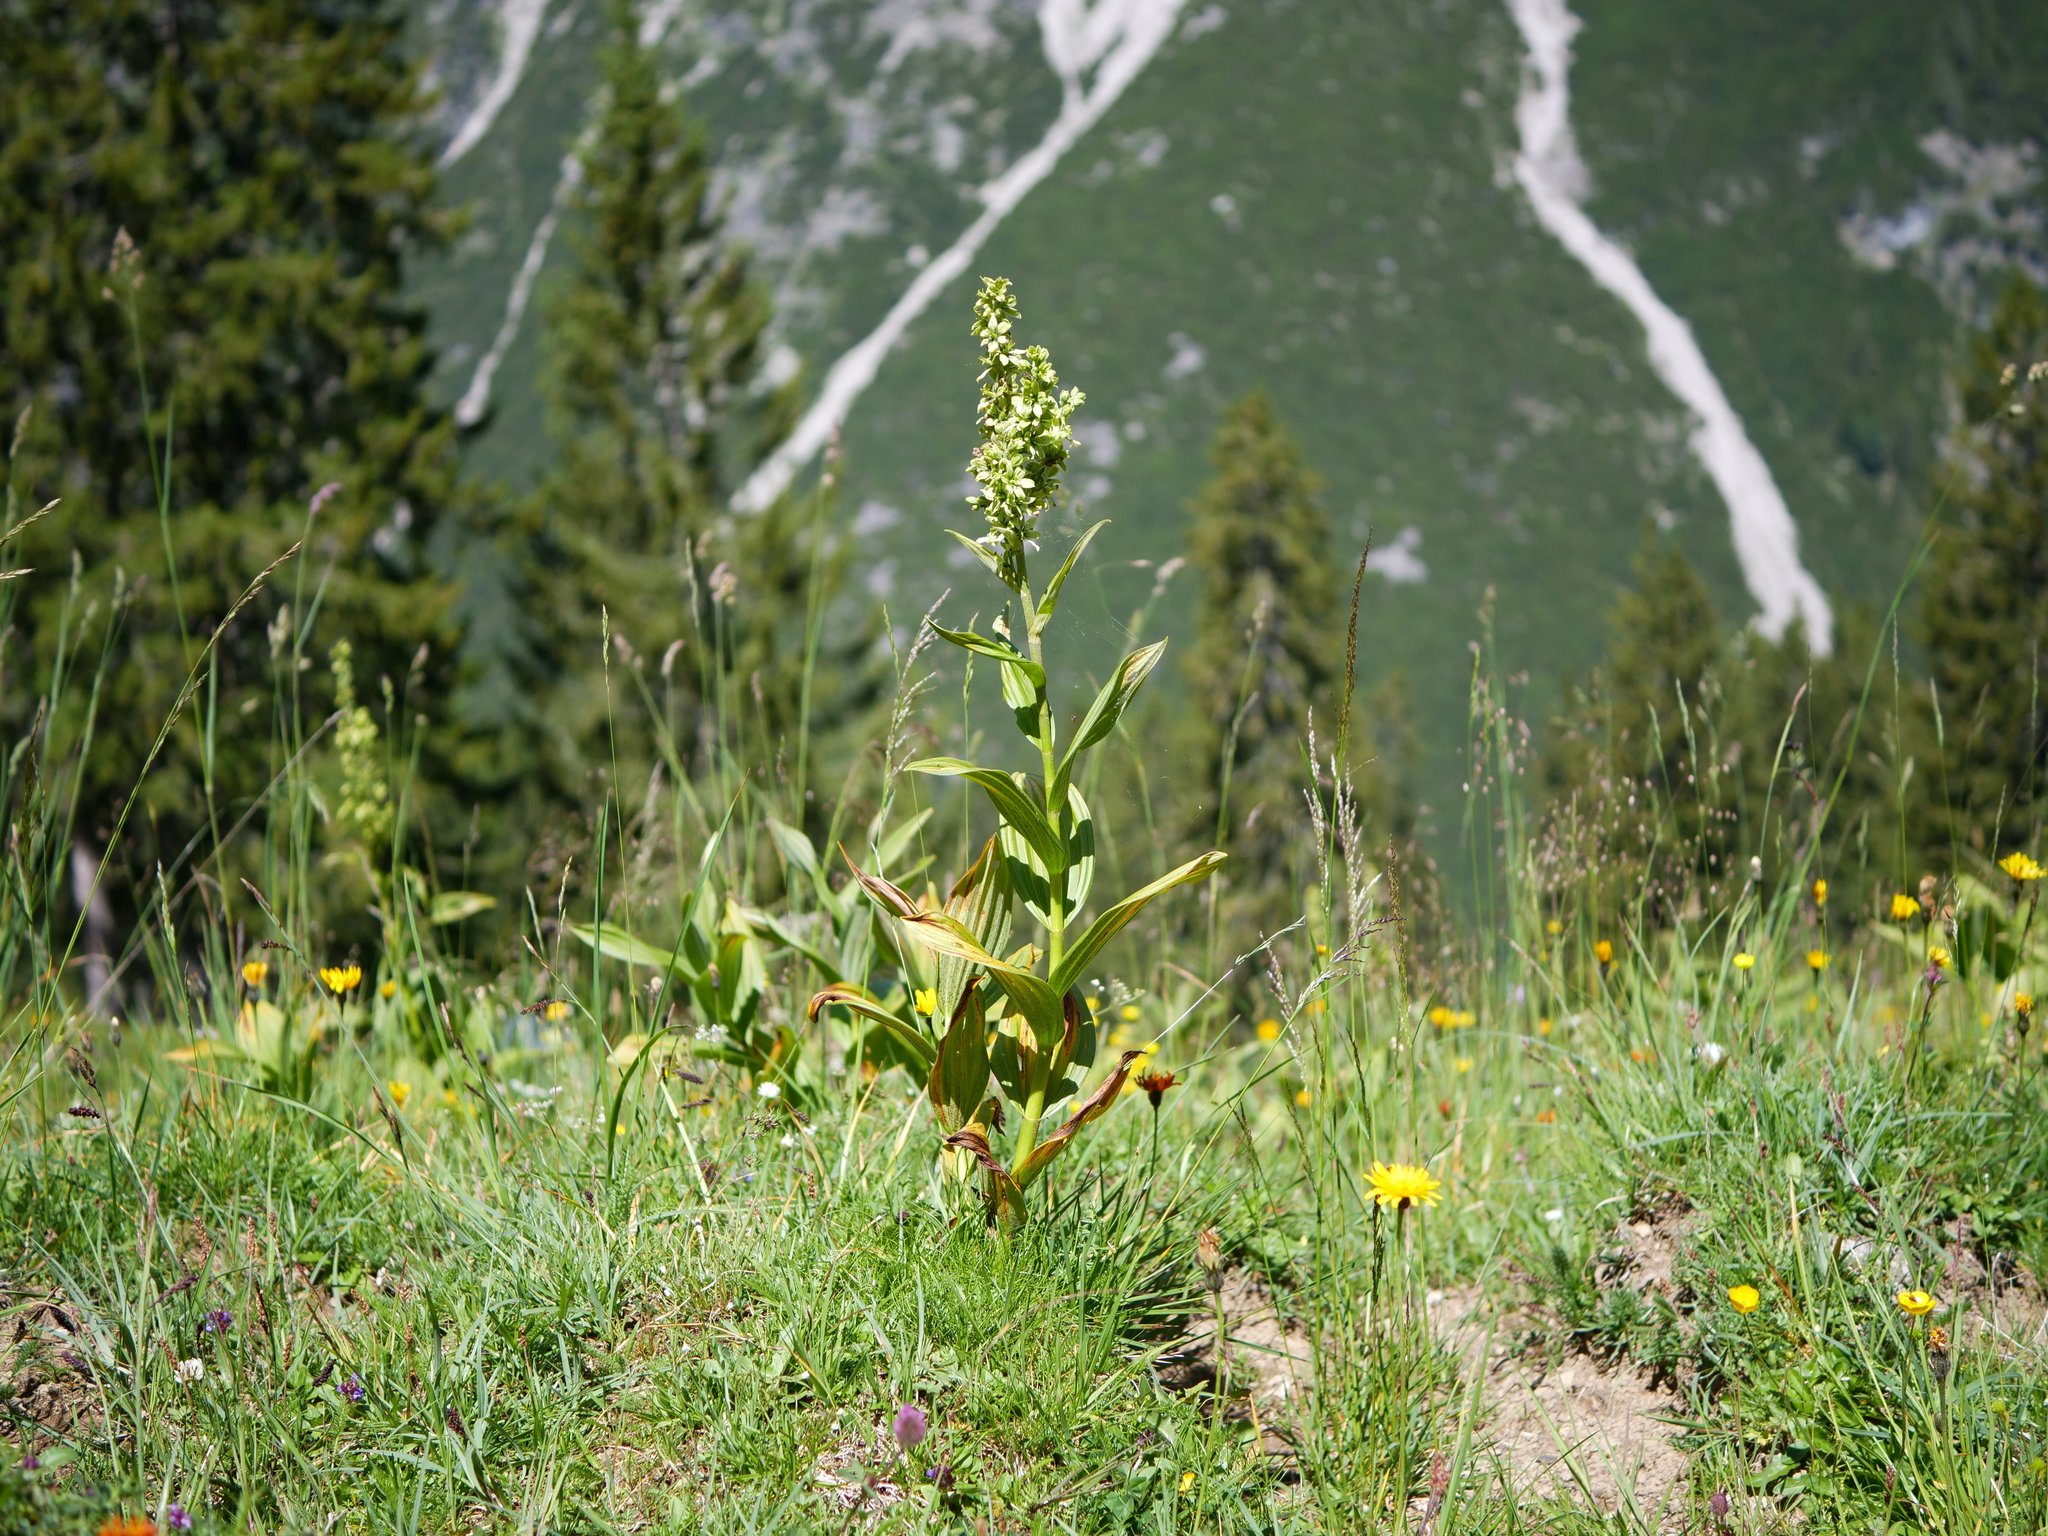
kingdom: Plantae
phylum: Tracheophyta
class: Liliopsida
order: Liliales
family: Melanthiaceae
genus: Veratrum
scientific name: Veratrum lobelianum
